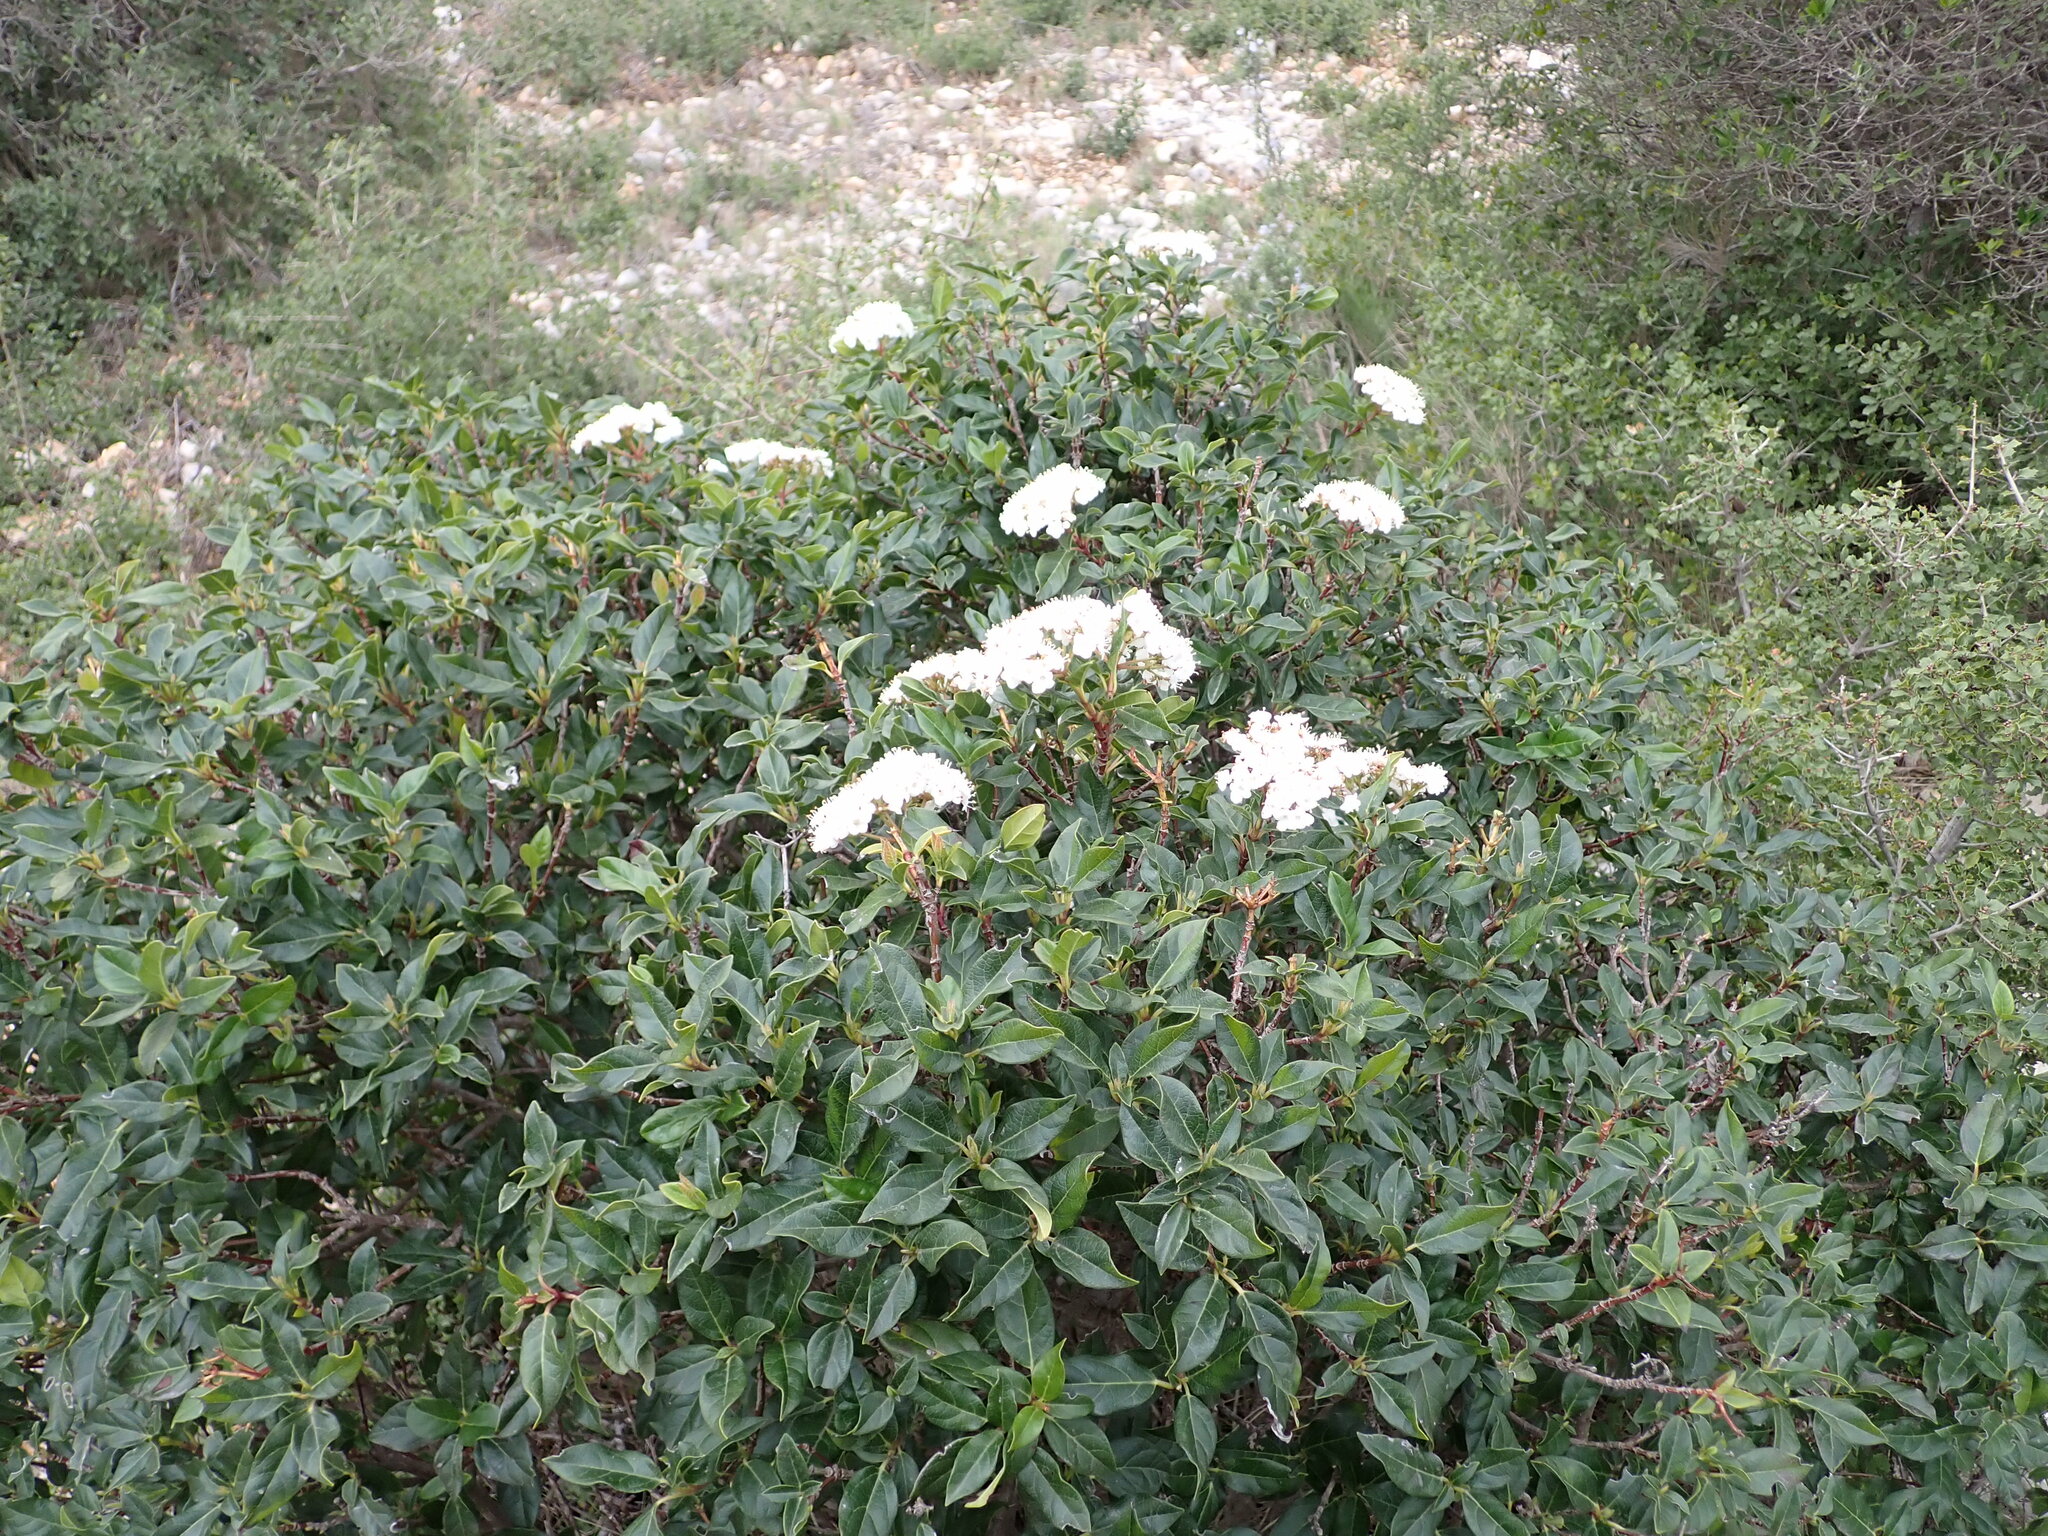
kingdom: Plantae
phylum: Tracheophyta
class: Magnoliopsida
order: Dipsacales
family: Viburnaceae
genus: Viburnum
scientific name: Viburnum tinus
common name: Laurustinus
